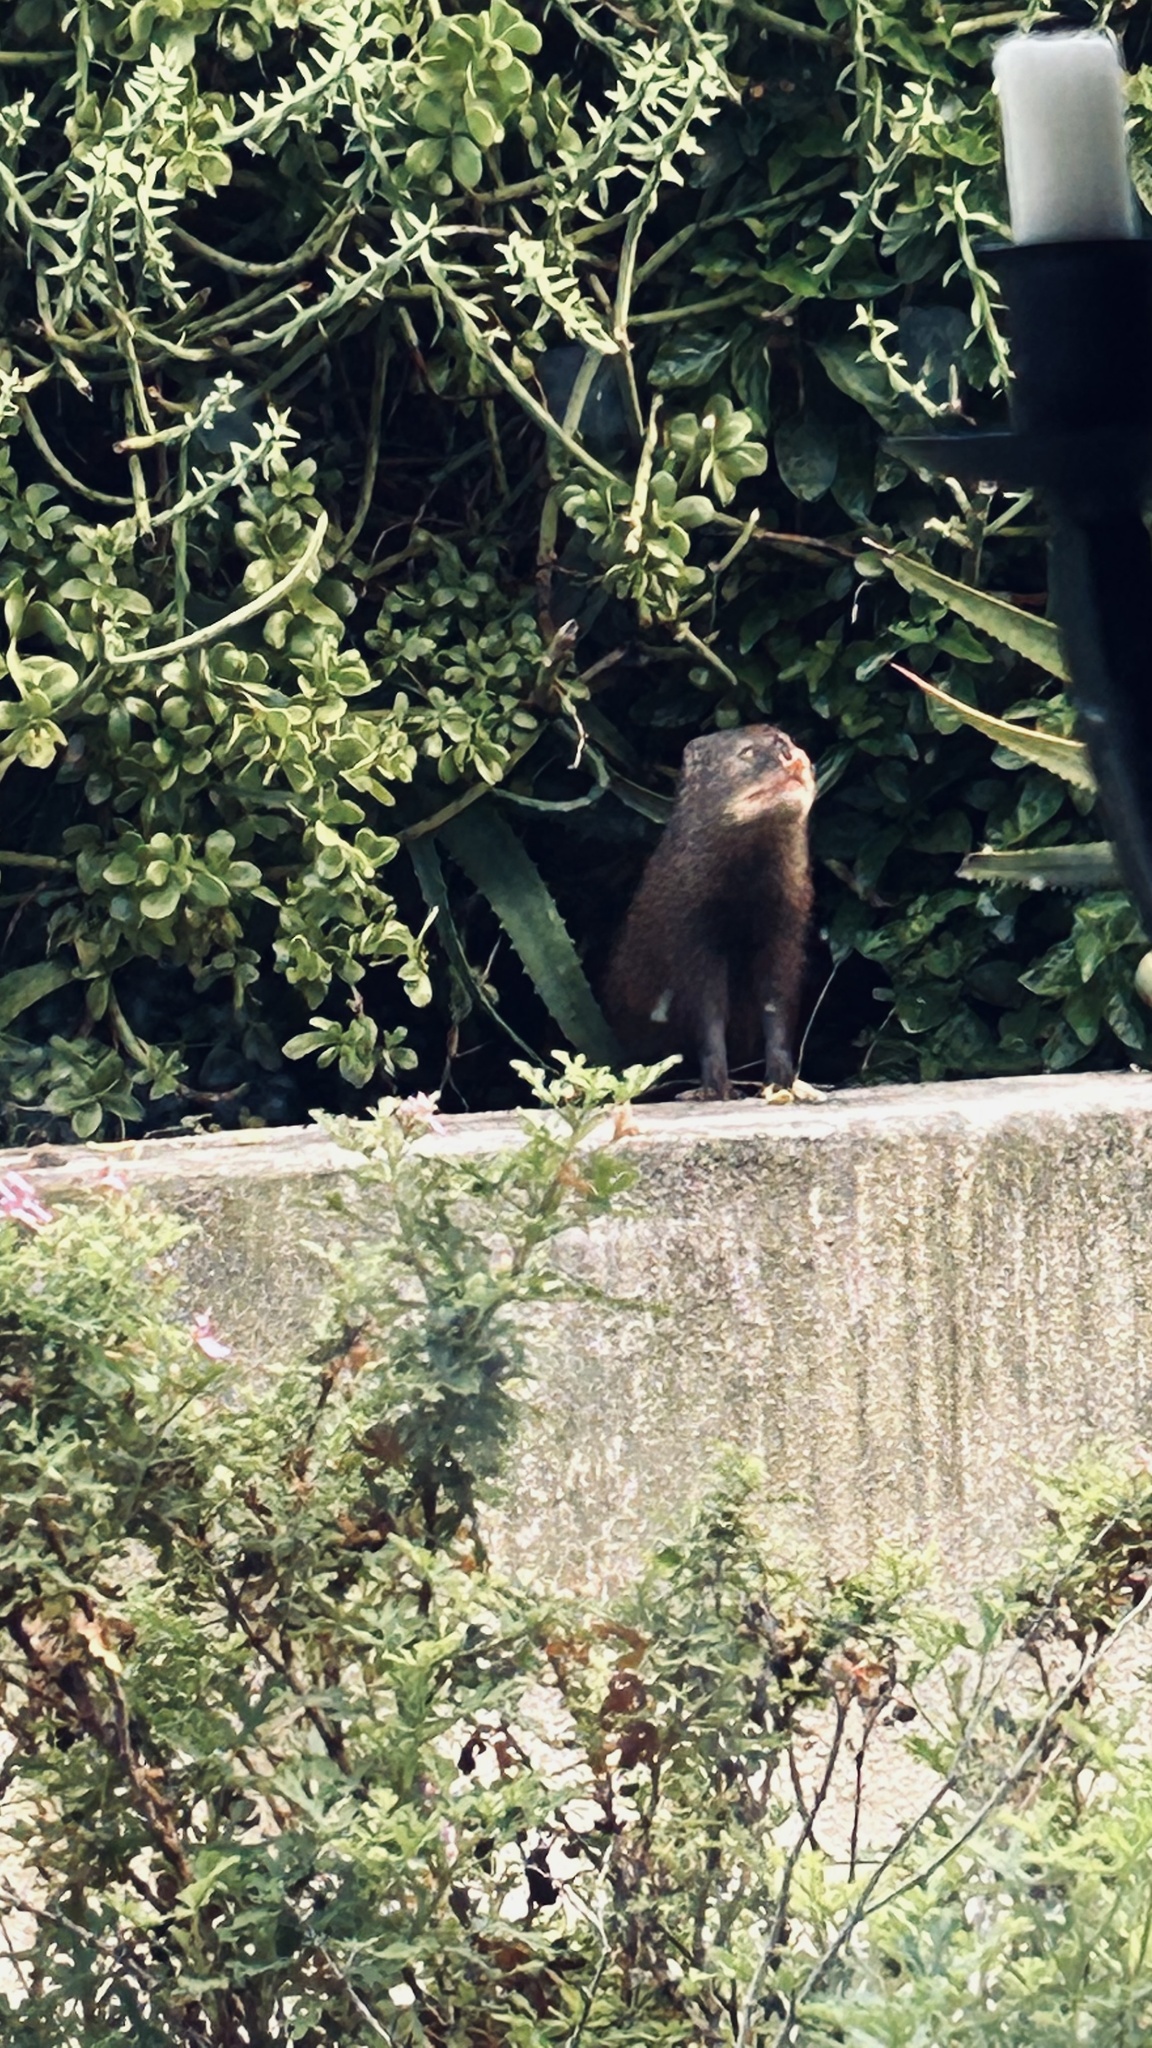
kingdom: Animalia
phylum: Chordata
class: Mammalia
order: Carnivora
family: Herpestidae
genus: Atilax
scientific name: Atilax paludinosus
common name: Marsh mongoose
